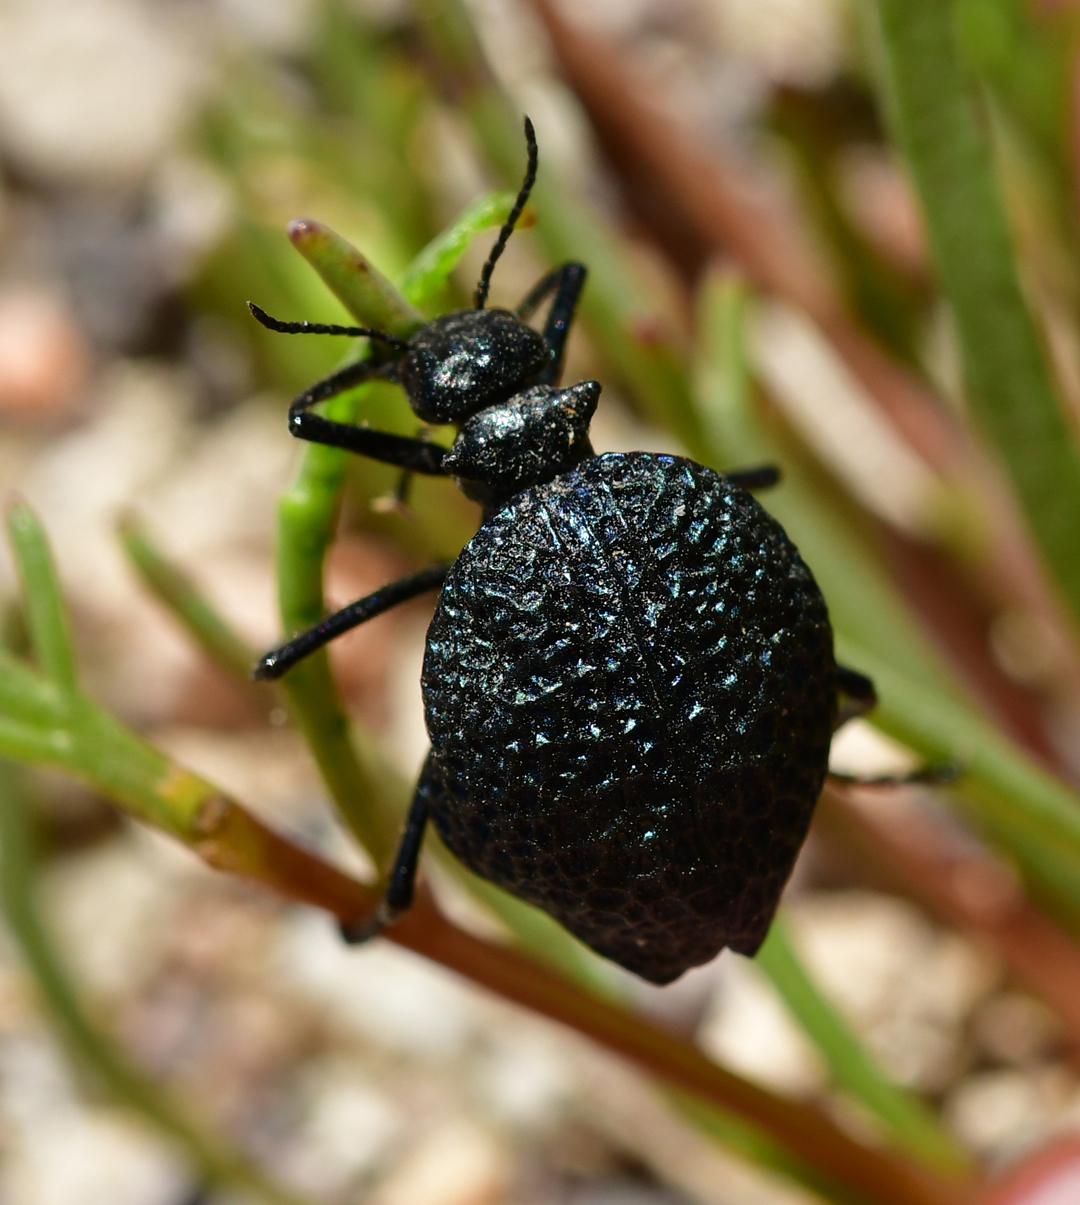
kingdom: Animalia
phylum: Arthropoda
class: Insecta
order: Coleoptera
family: Meloidae
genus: Cysteodemus
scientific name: Cysteodemus armatus
